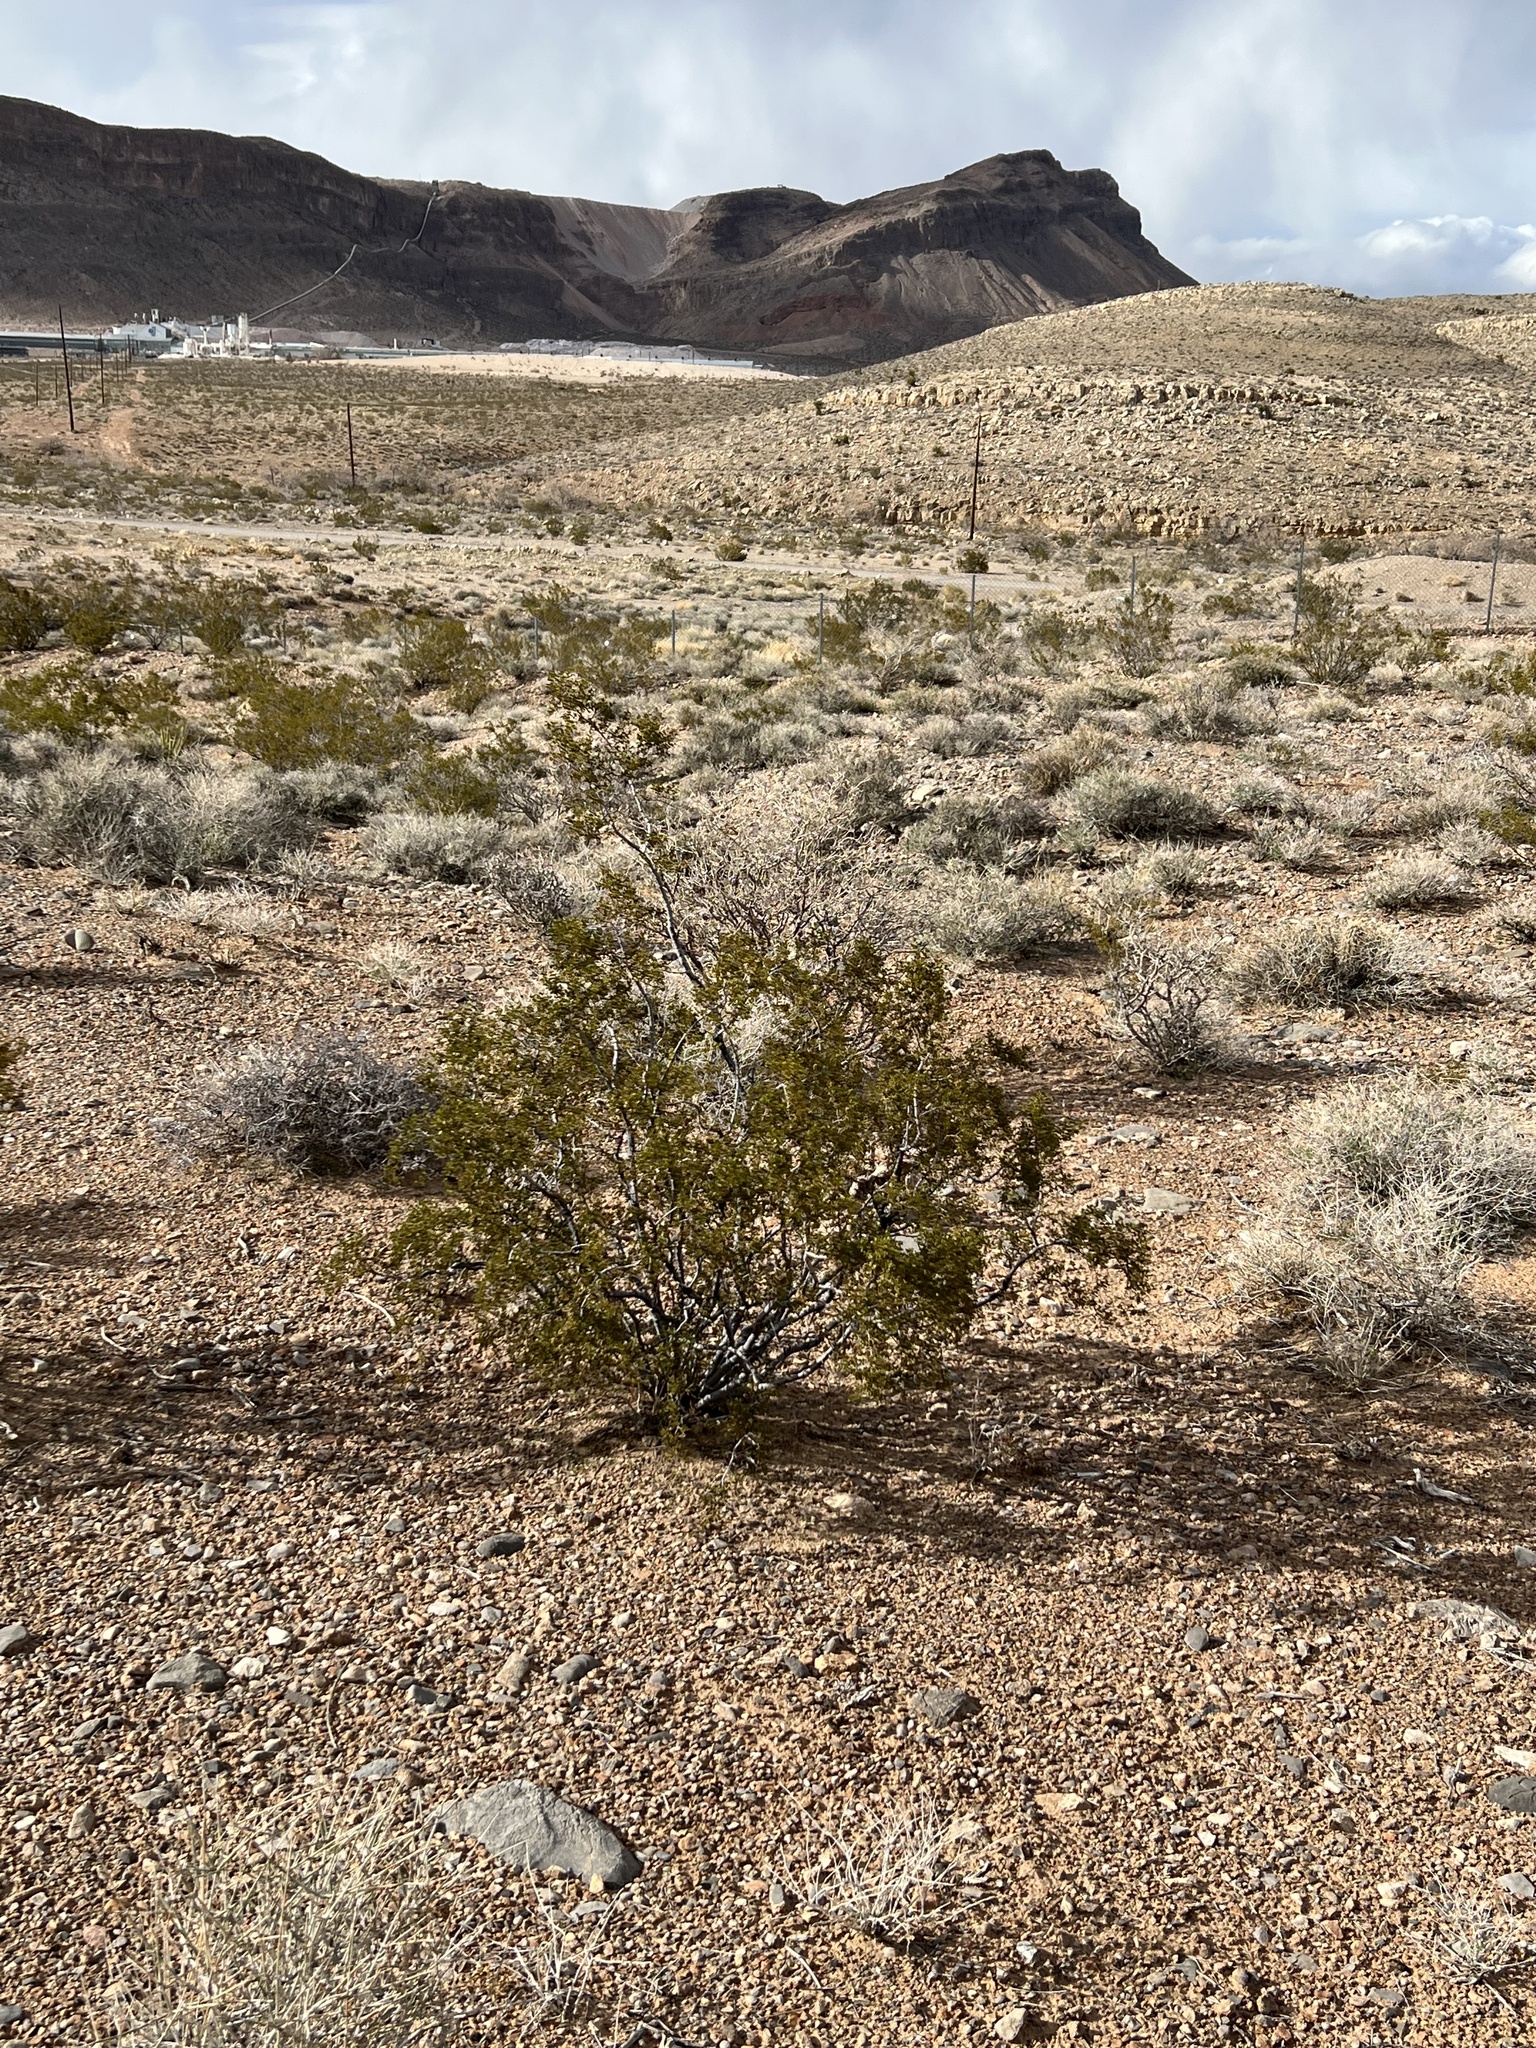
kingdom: Plantae
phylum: Tracheophyta
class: Magnoliopsida
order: Zygophyllales
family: Zygophyllaceae
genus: Larrea
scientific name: Larrea tridentata
